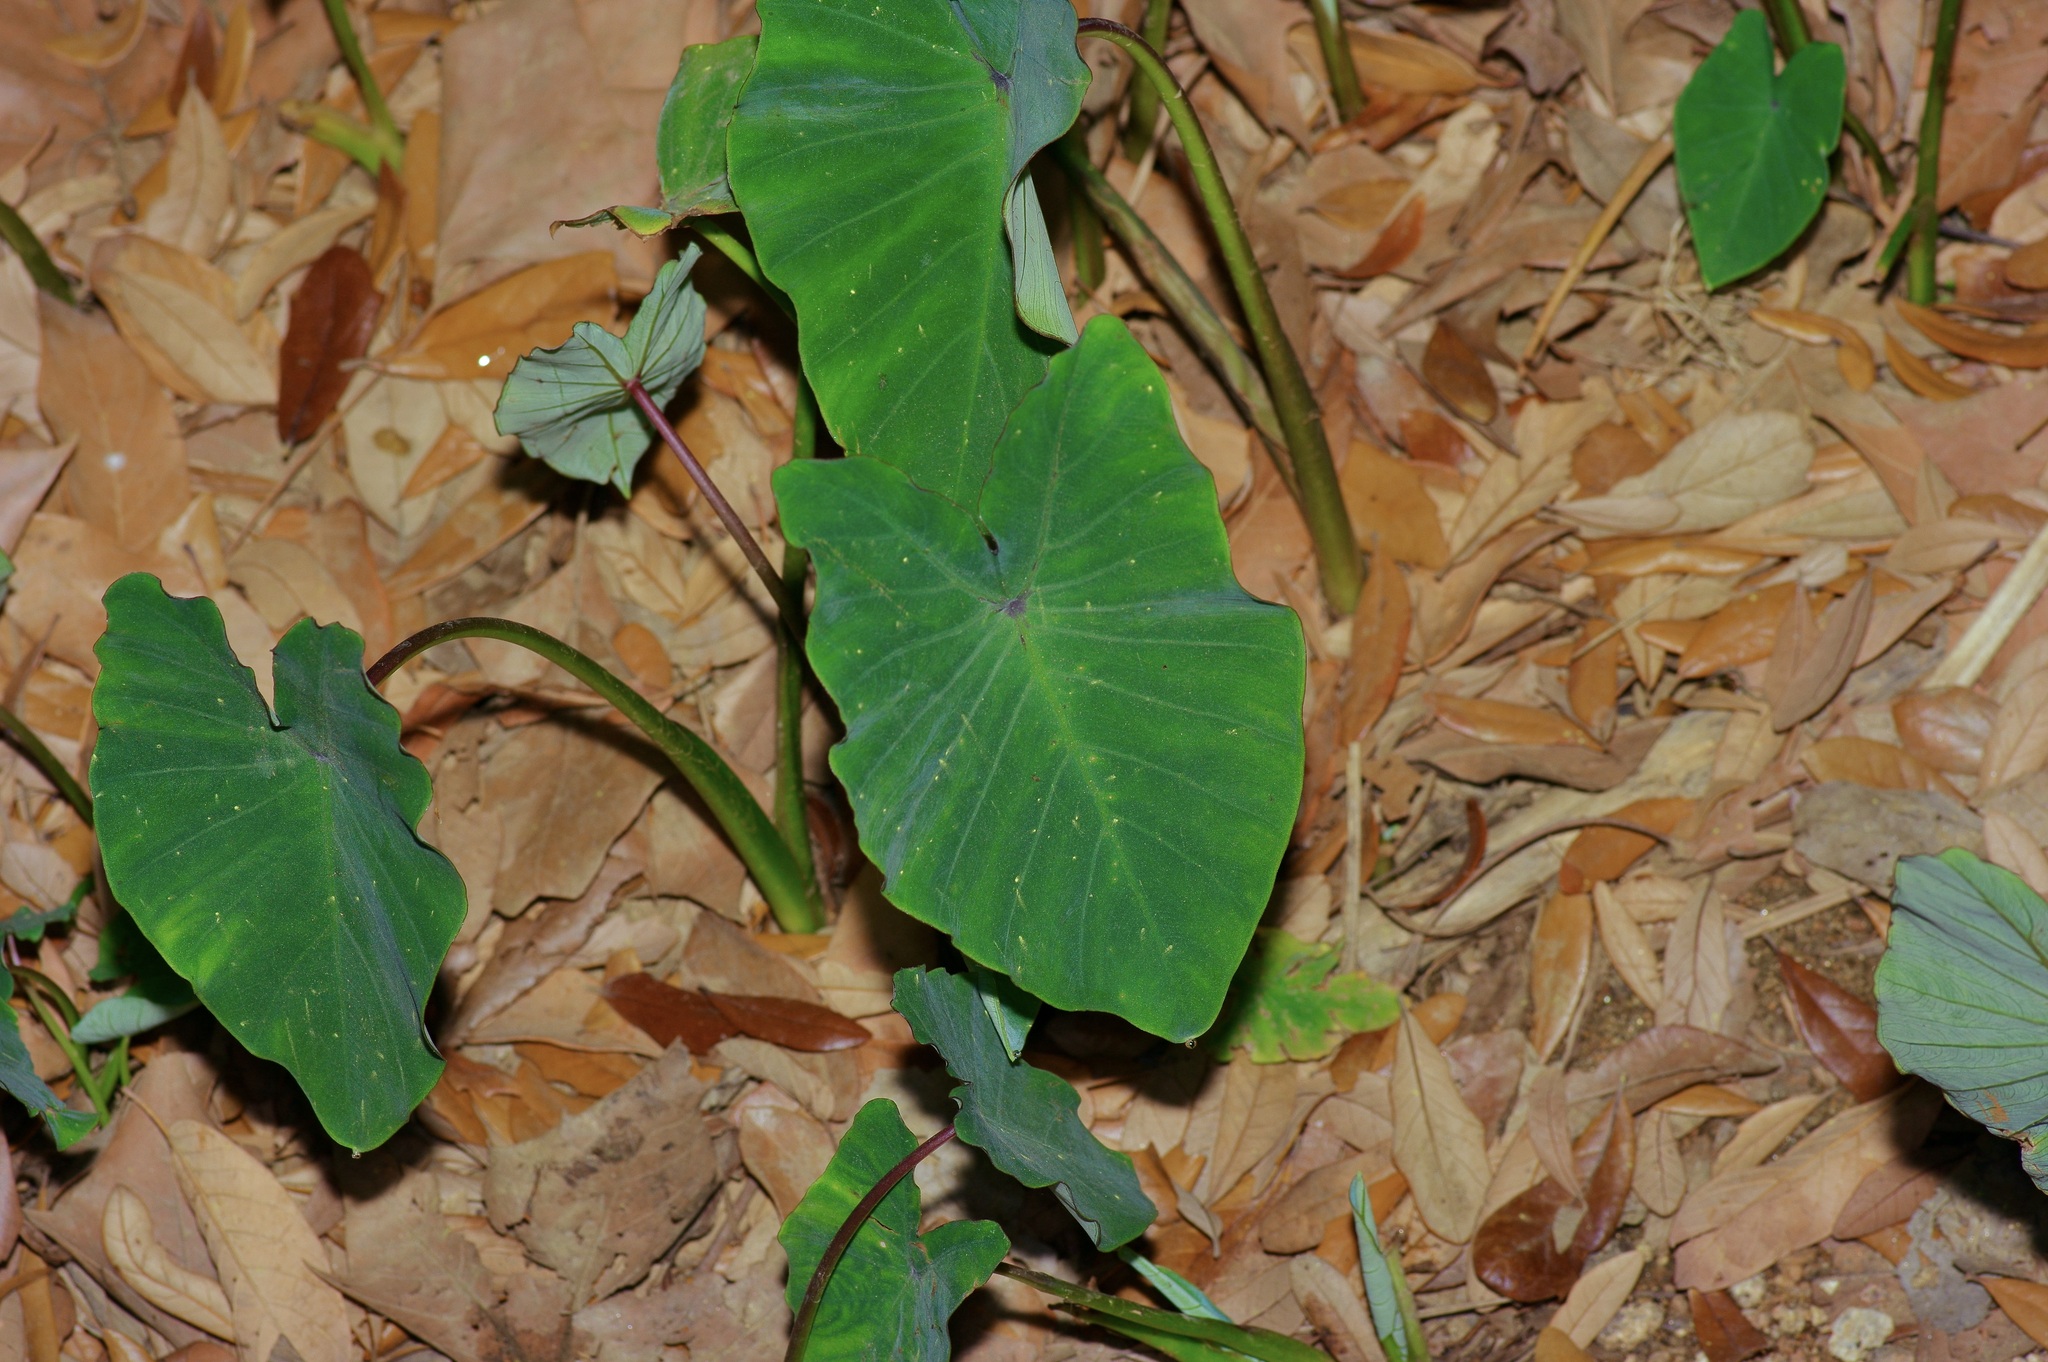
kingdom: Plantae
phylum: Tracheophyta
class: Liliopsida
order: Alismatales
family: Araceae
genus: Colocasia
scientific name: Colocasia esculenta
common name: Taro
